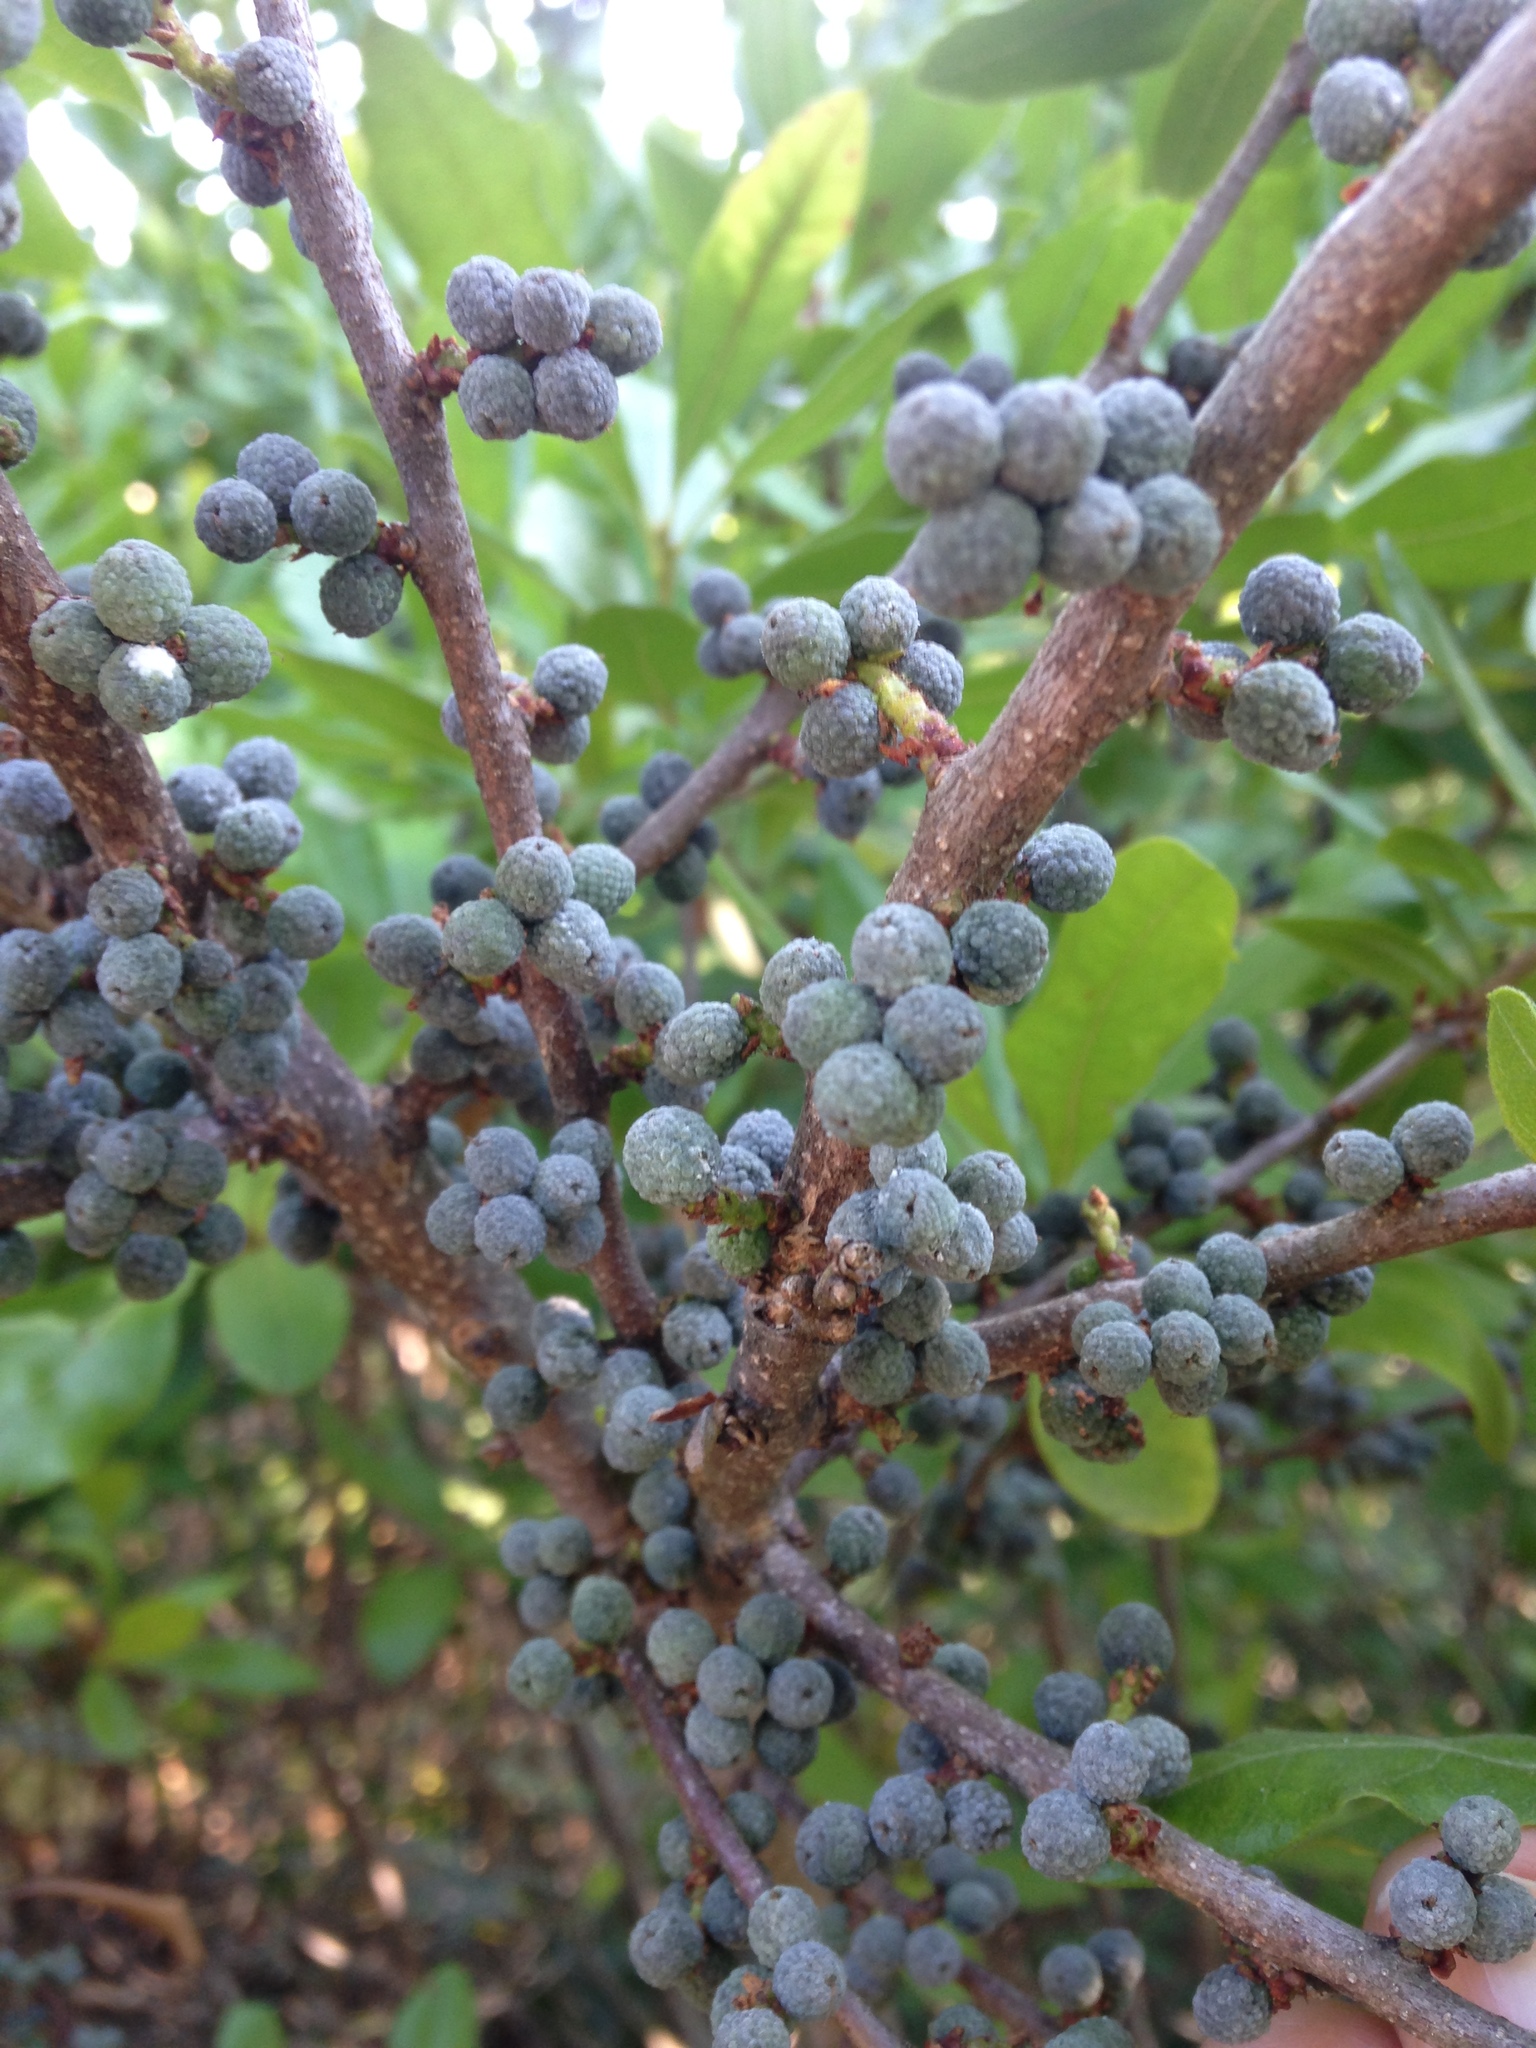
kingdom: Plantae
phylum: Tracheophyta
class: Magnoliopsida
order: Fagales
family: Myricaceae
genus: Morella
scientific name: Morella pensylvanica
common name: Northern bayberry
